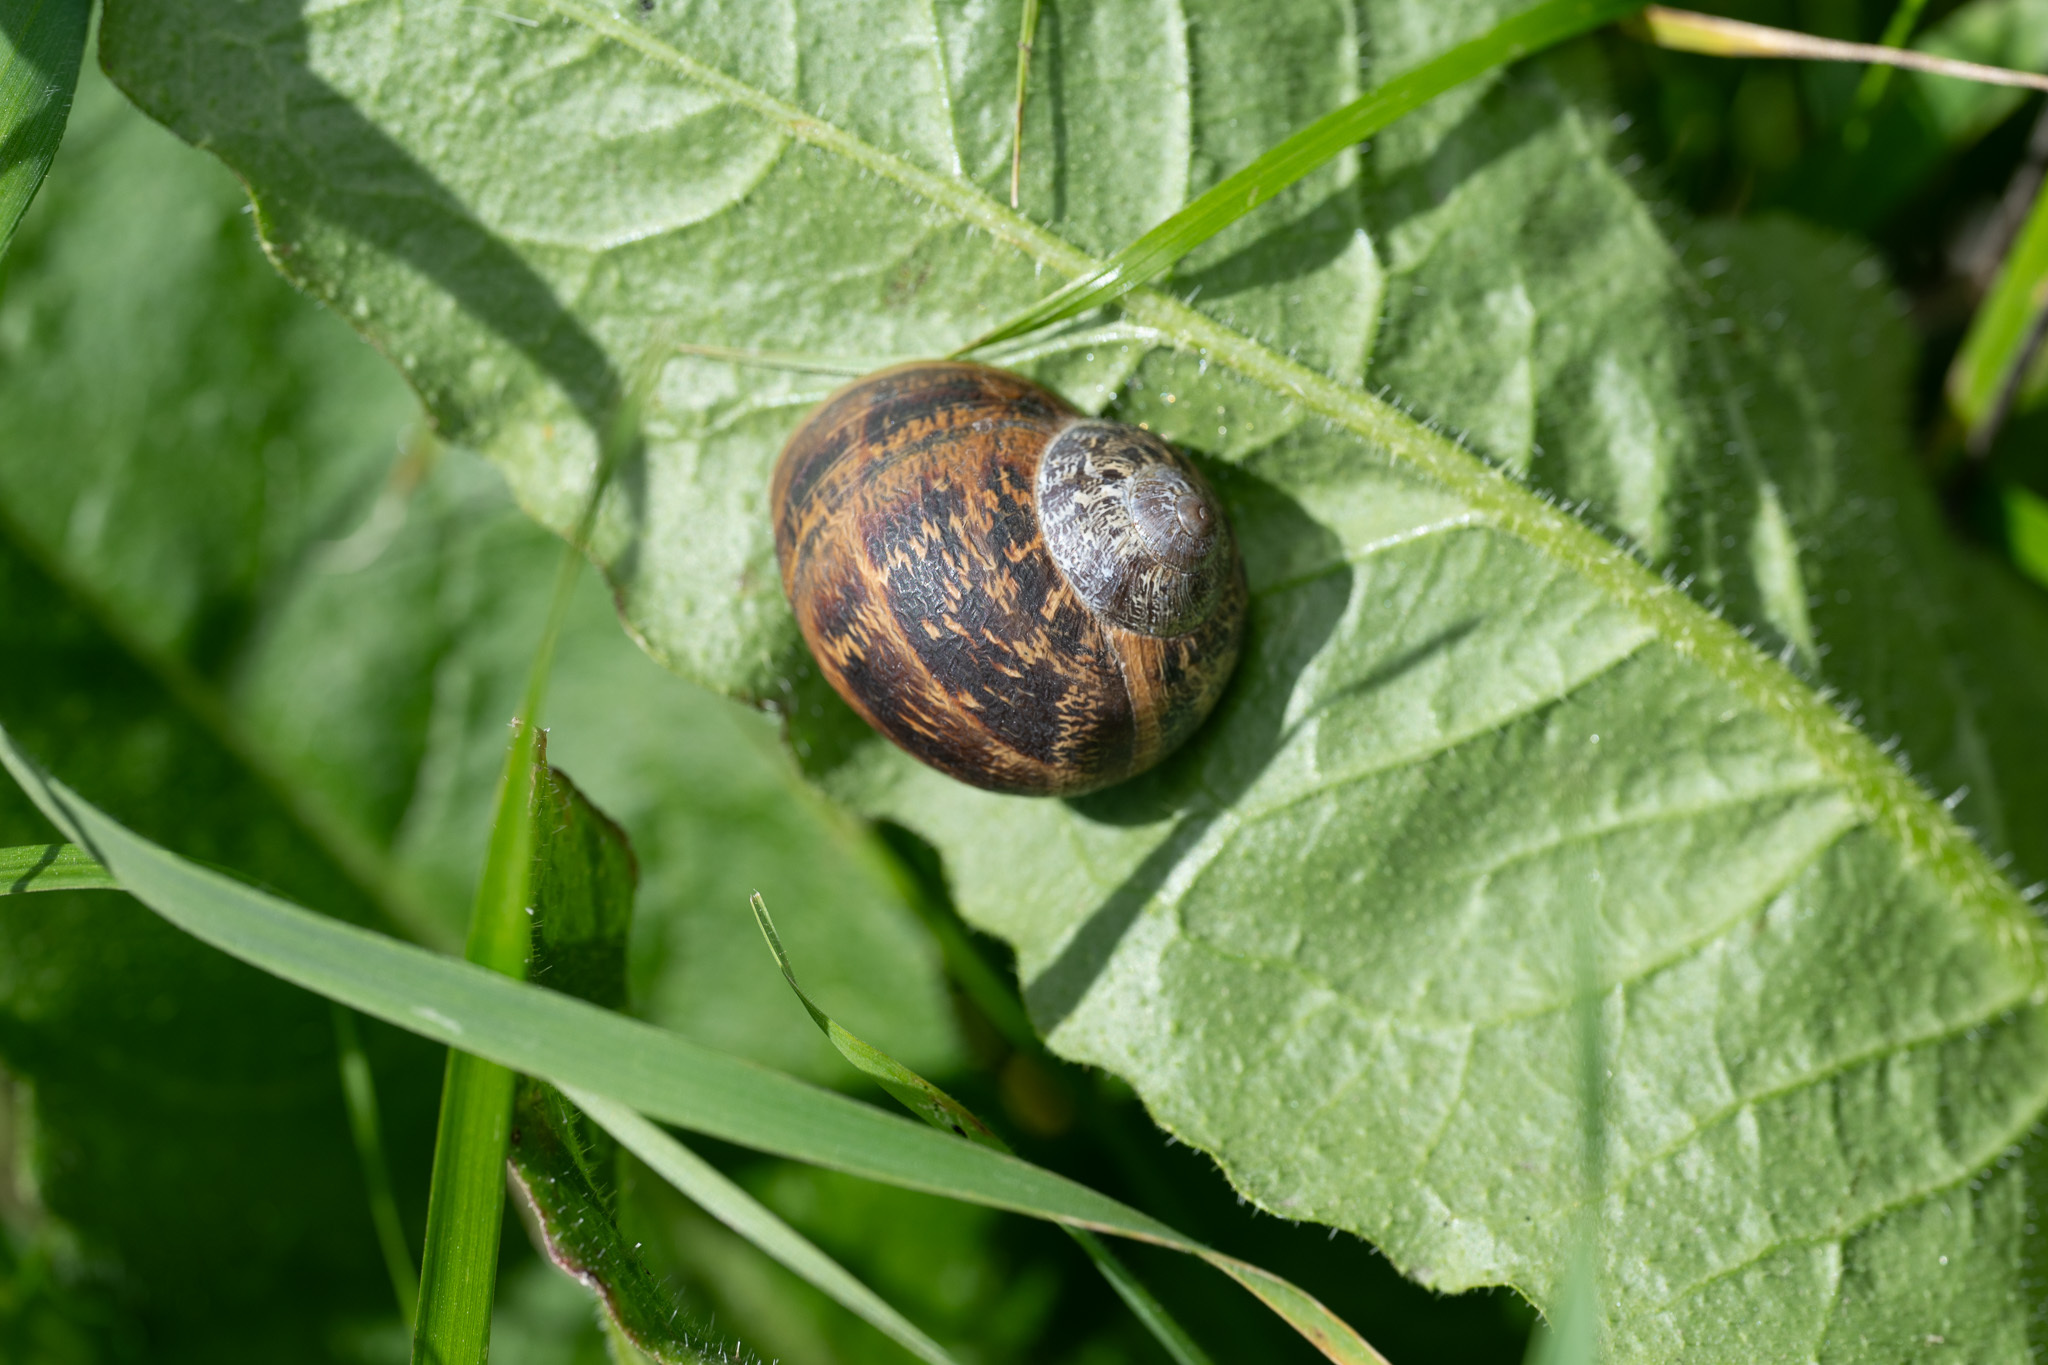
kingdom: Animalia
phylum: Mollusca
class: Gastropoda
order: Stylommatophora
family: Helicidae
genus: Cornu
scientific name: Cornu aspersum
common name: Brown garden snail
